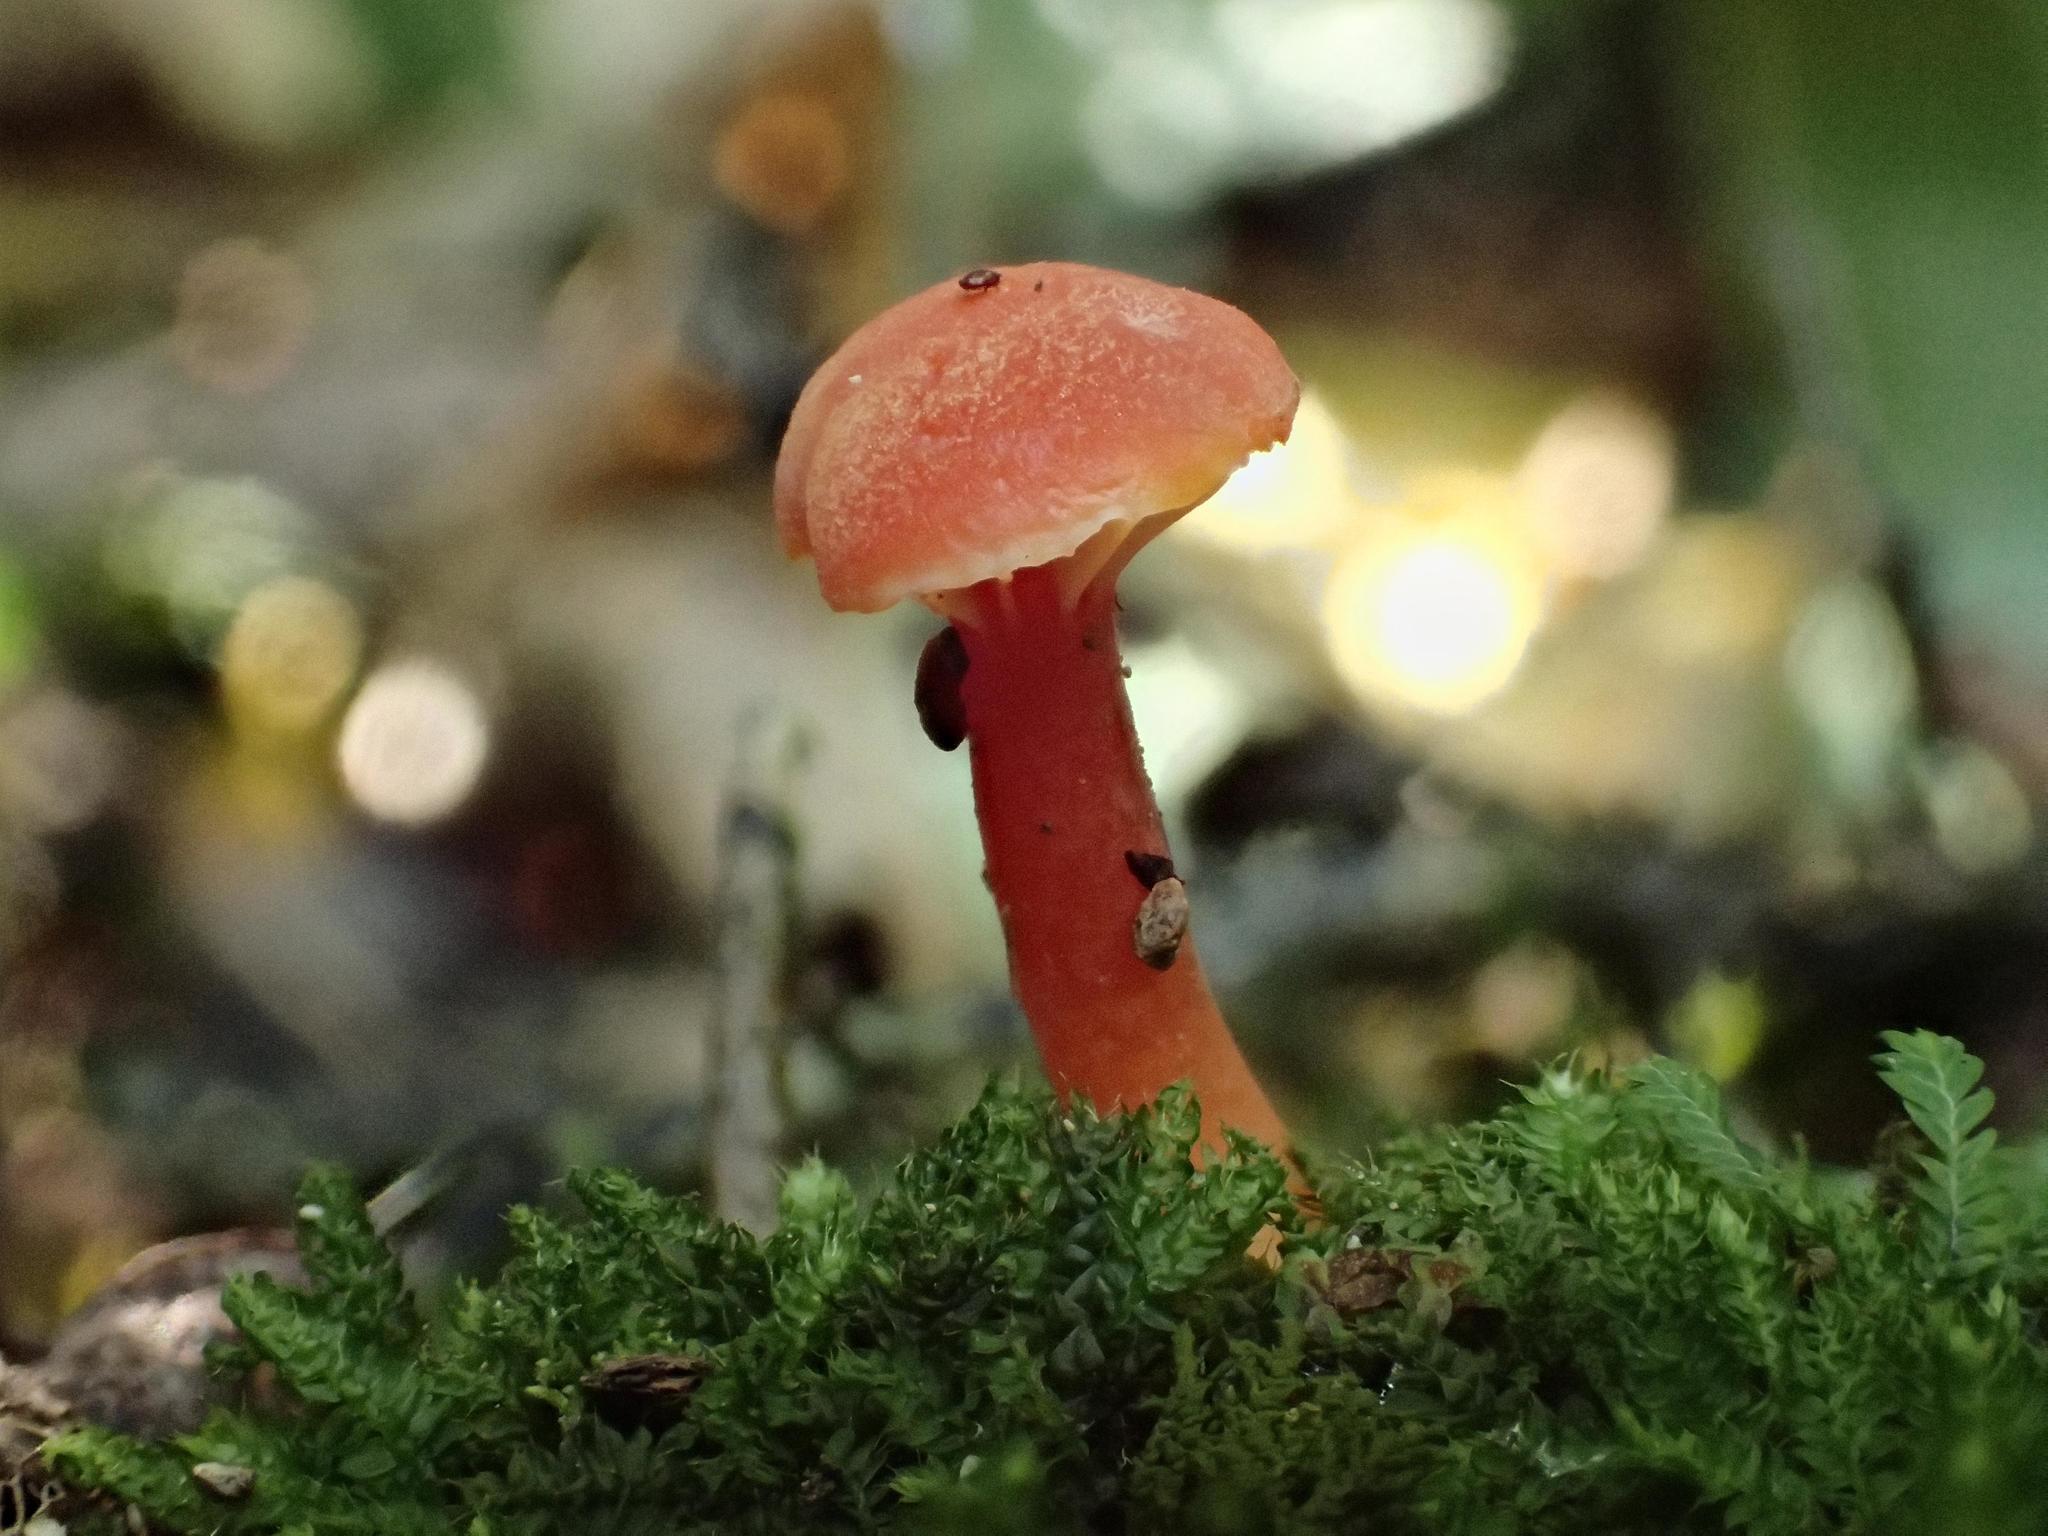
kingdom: Fungi
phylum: Basidiomycota
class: Agaricomycetes
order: Agaricales
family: Hygrophoraceae
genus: Hygrocybe
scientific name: Hygrocybe
